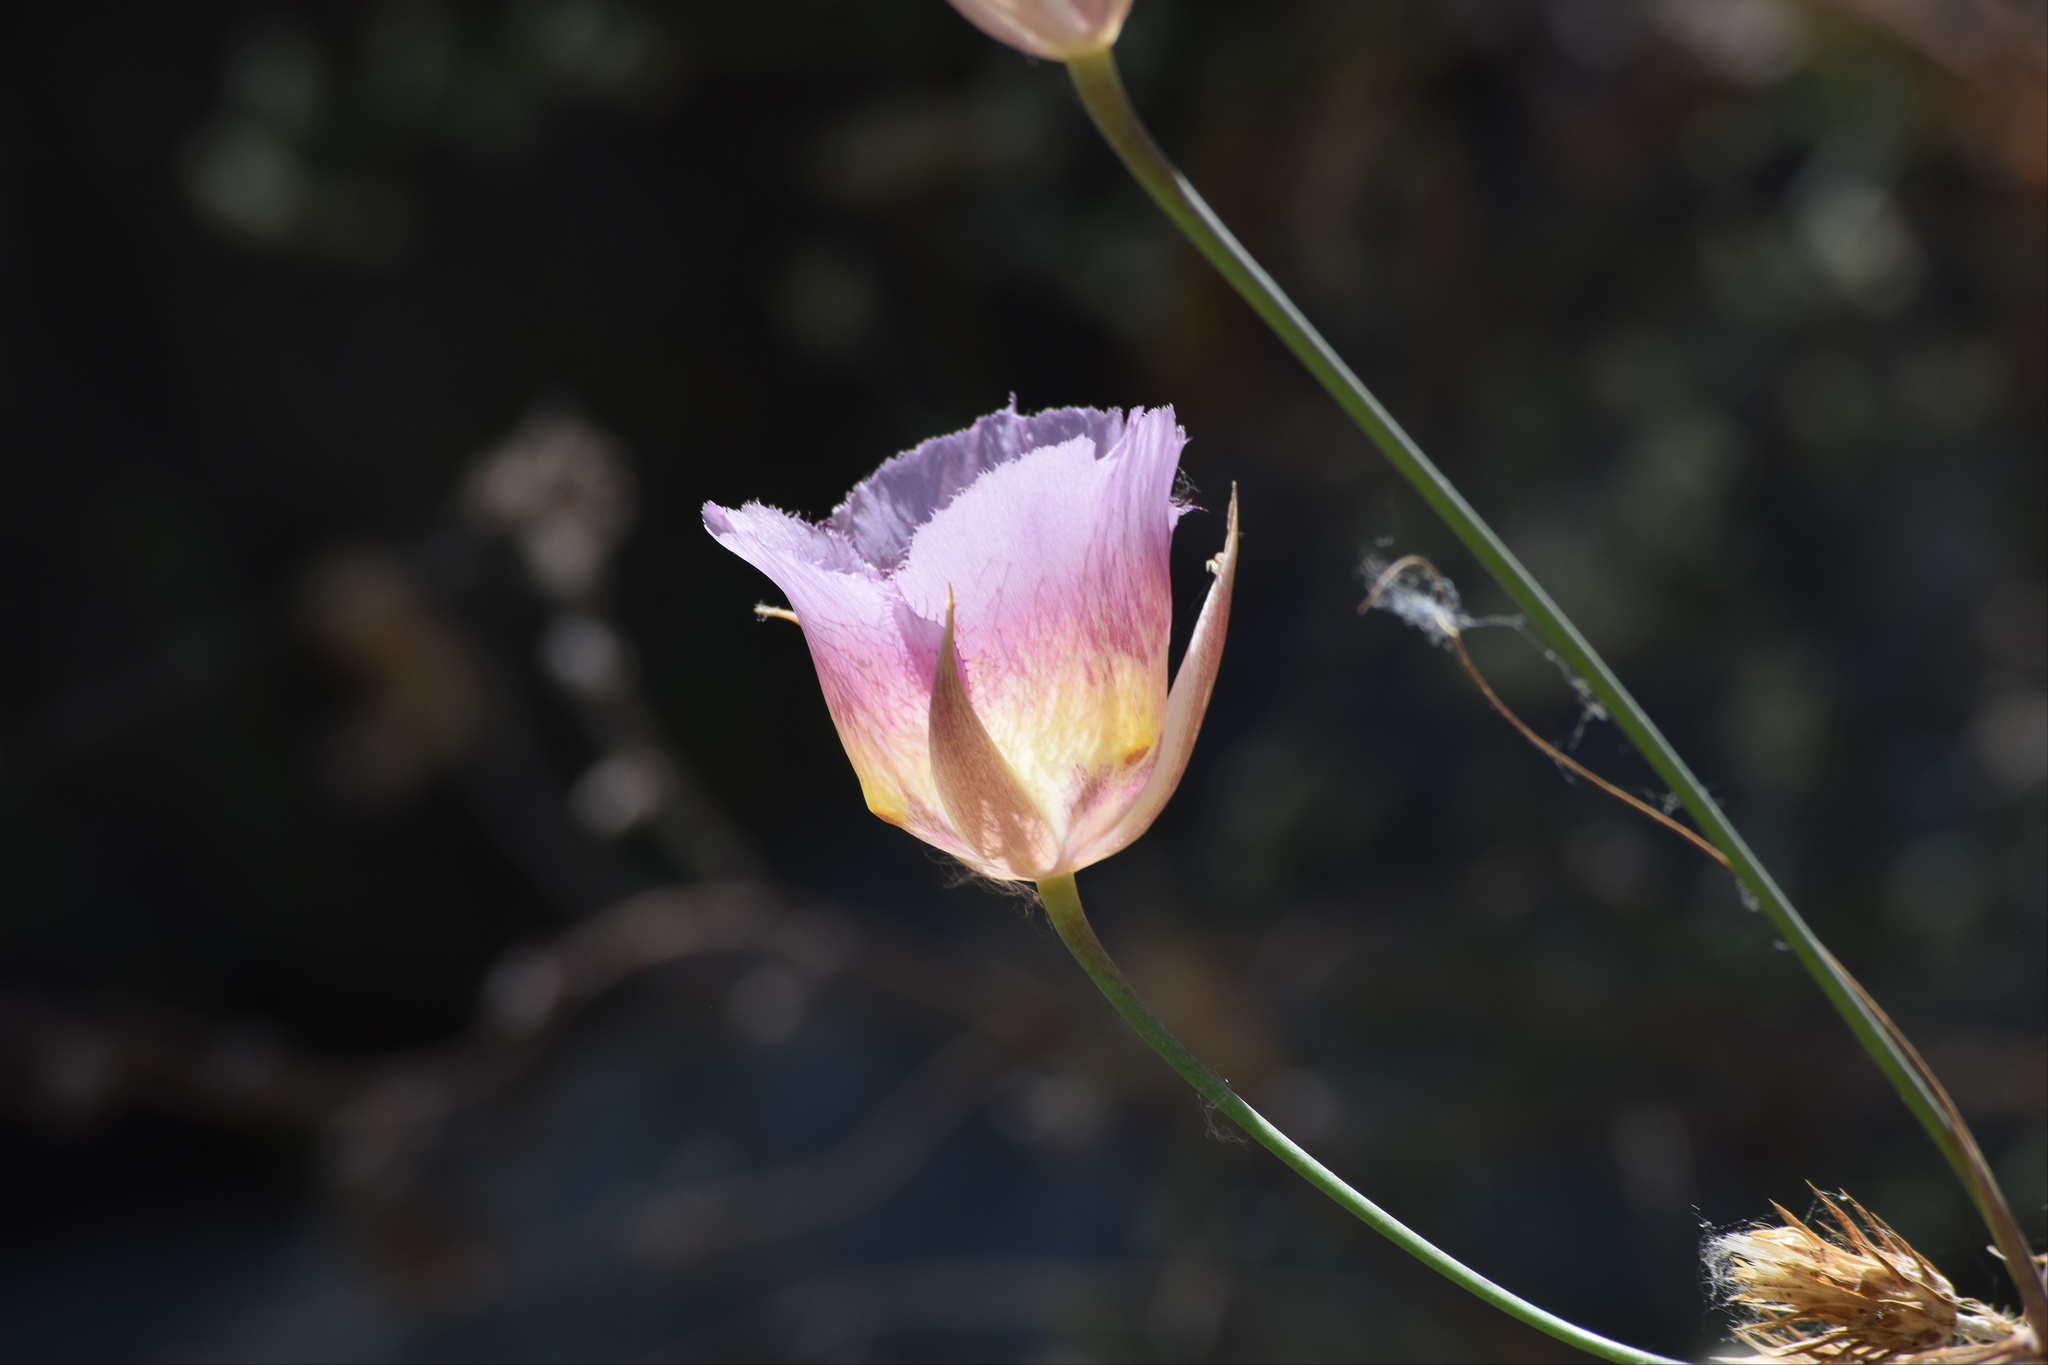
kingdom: Plantae
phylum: Tracheophyta
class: Liliopsida
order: Liliales
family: Liliaceae
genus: Calochortus
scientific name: Calochortus plummerae
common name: Plummer's mariposa-lily
